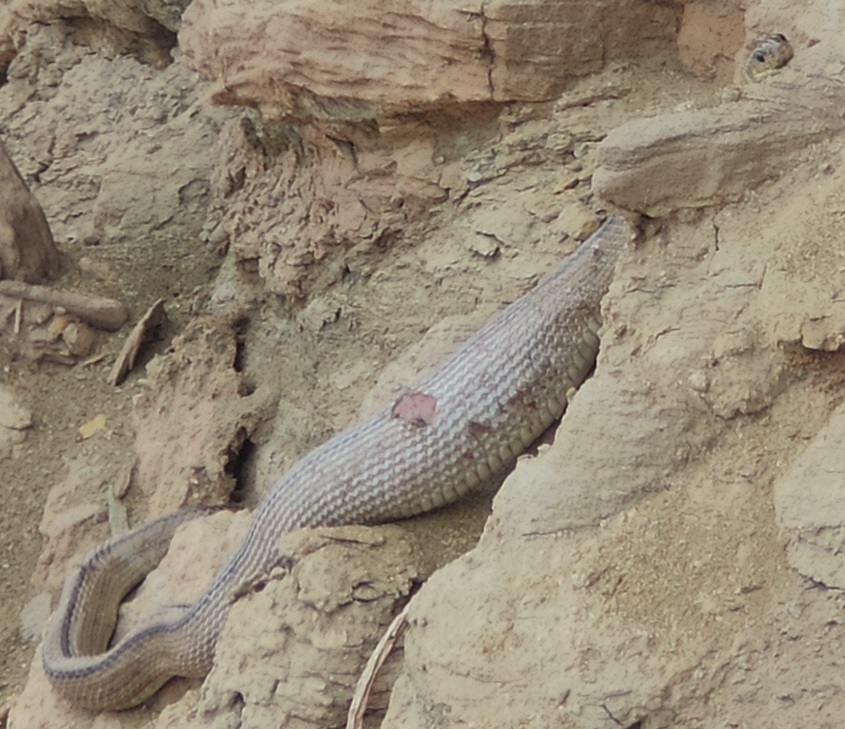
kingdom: Animalia
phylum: Chordata
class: Squamata
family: Colubridae
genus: Zamenis
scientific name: Zamenis scalaris
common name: Ladder snakes
